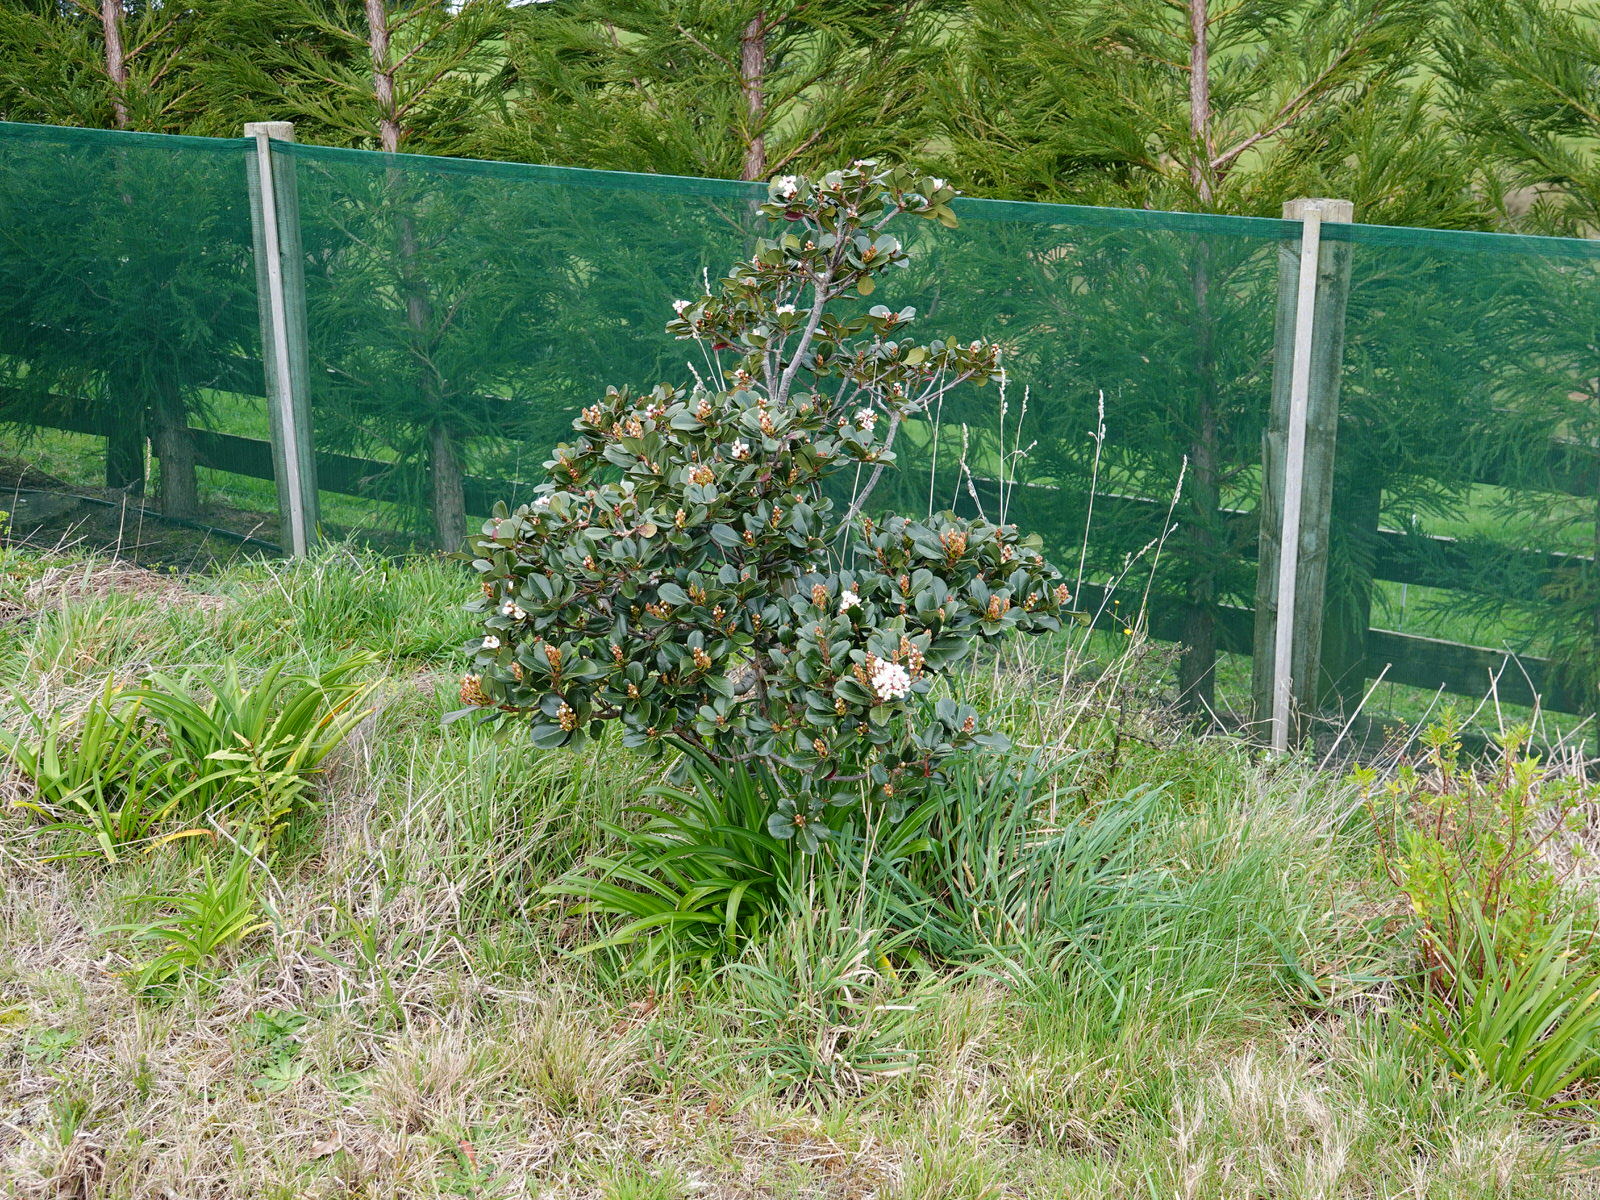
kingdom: Plantae
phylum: Tracheophyta
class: Magnoliopsida
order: Rosales
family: Rosaceae
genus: Rhaphiolepis
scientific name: Rhaphiolepis indica
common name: India-hawthorn
